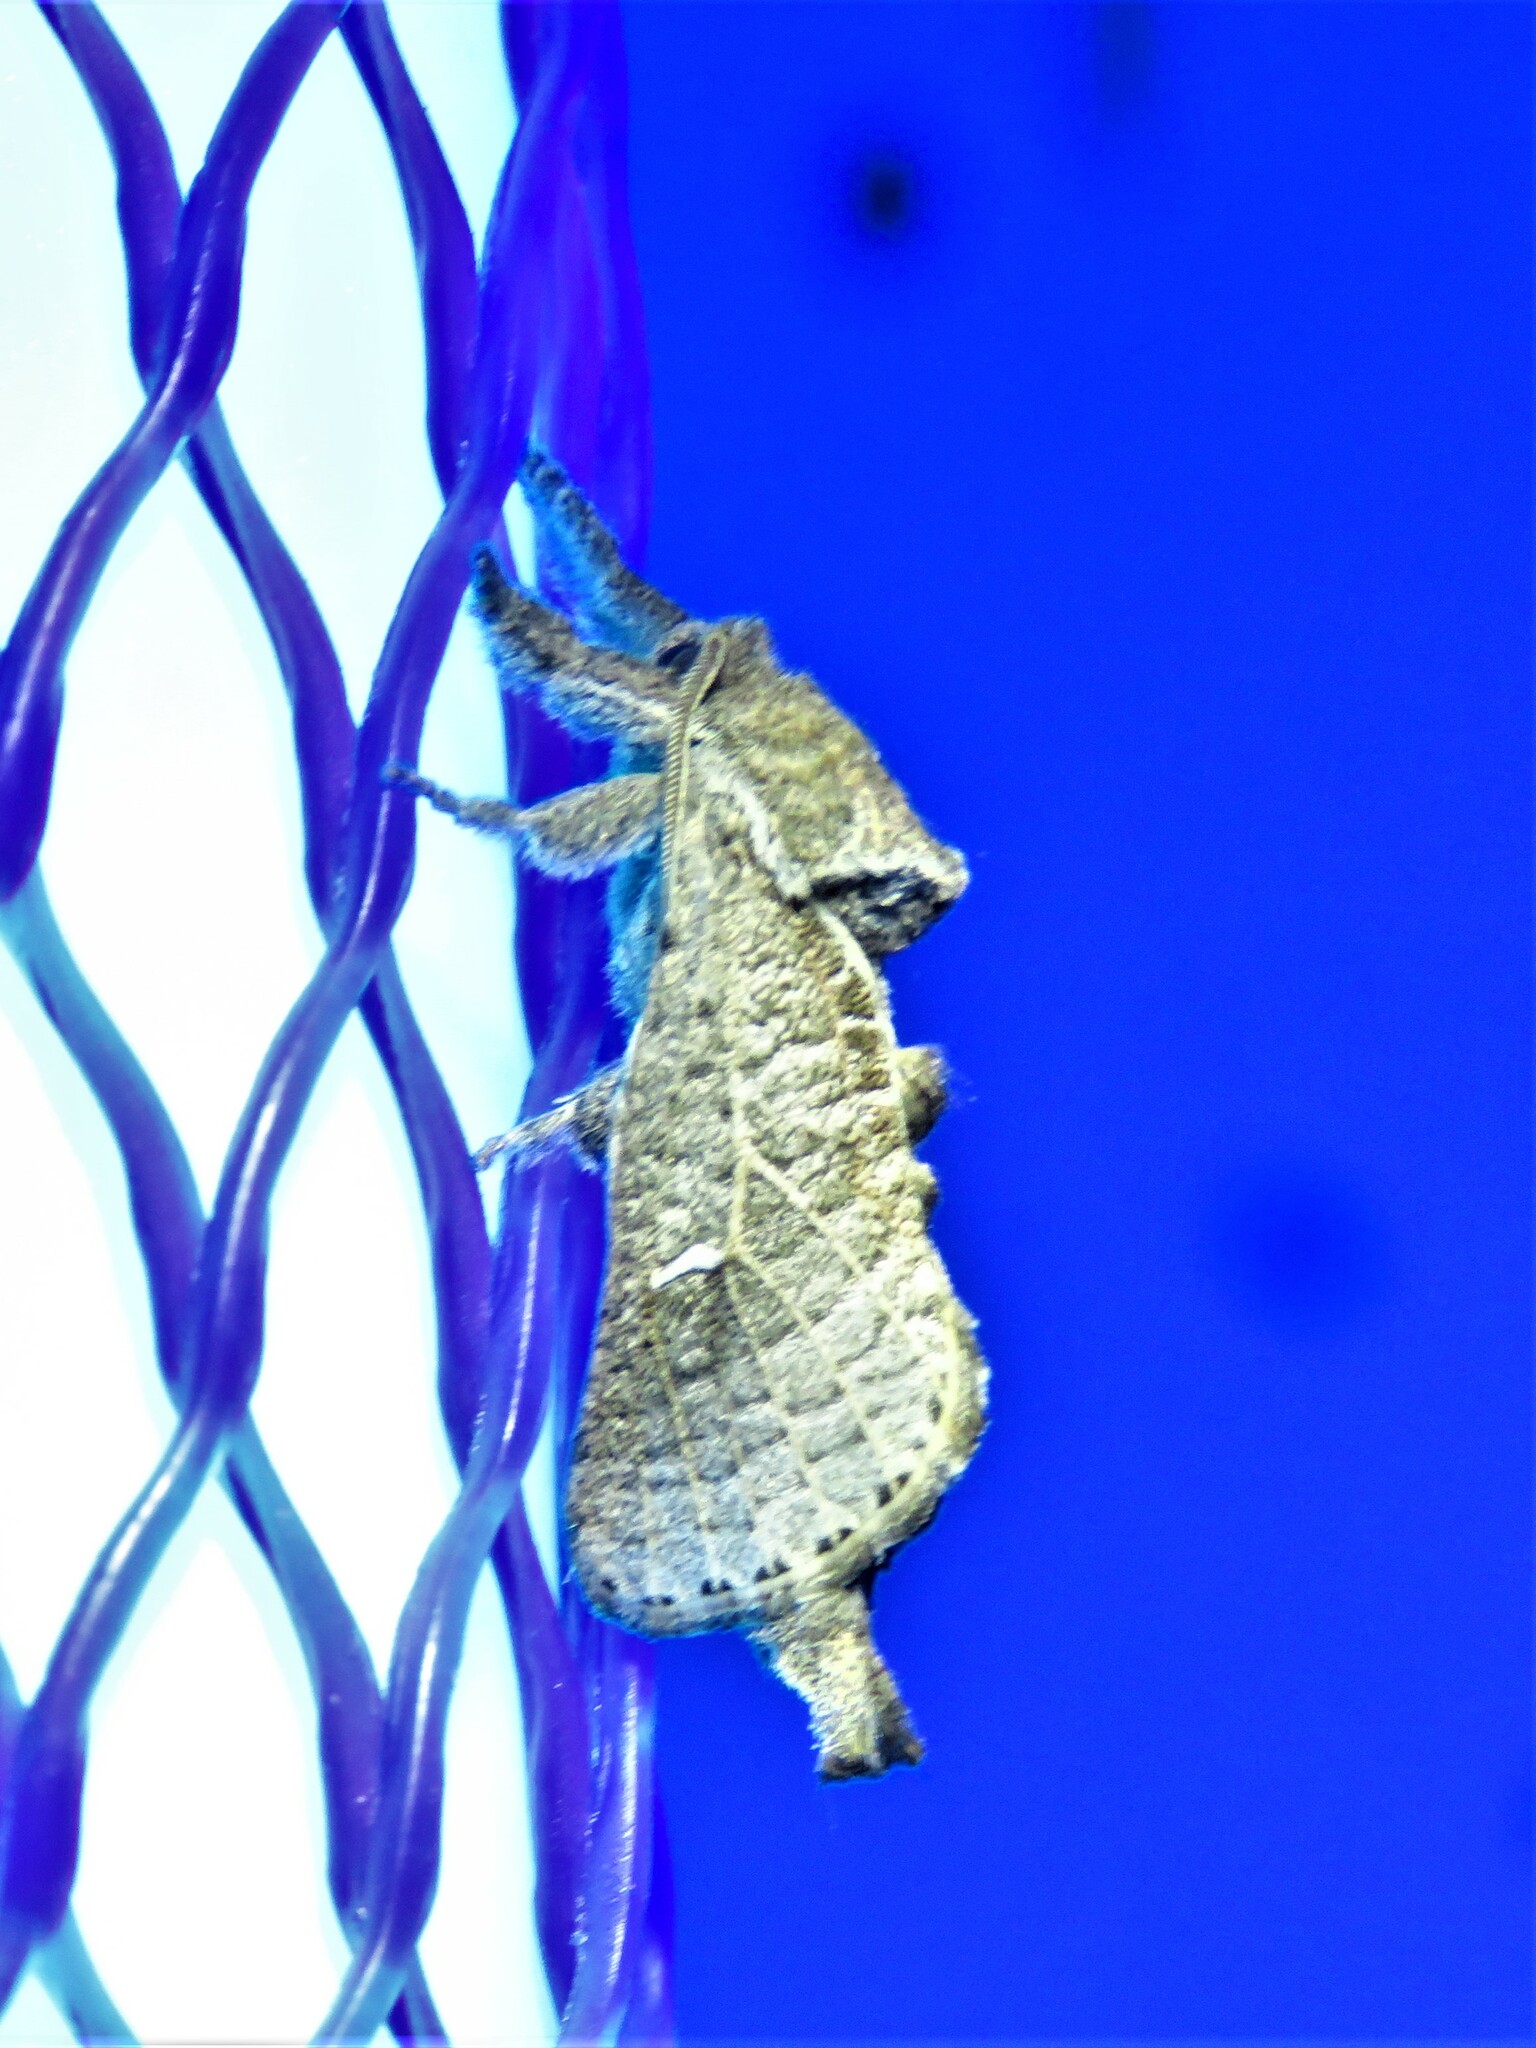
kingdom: Animalia
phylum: Arthropoda
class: Insecta
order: Lepidoptera
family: Cossidae
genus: Givira
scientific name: Givira anna
